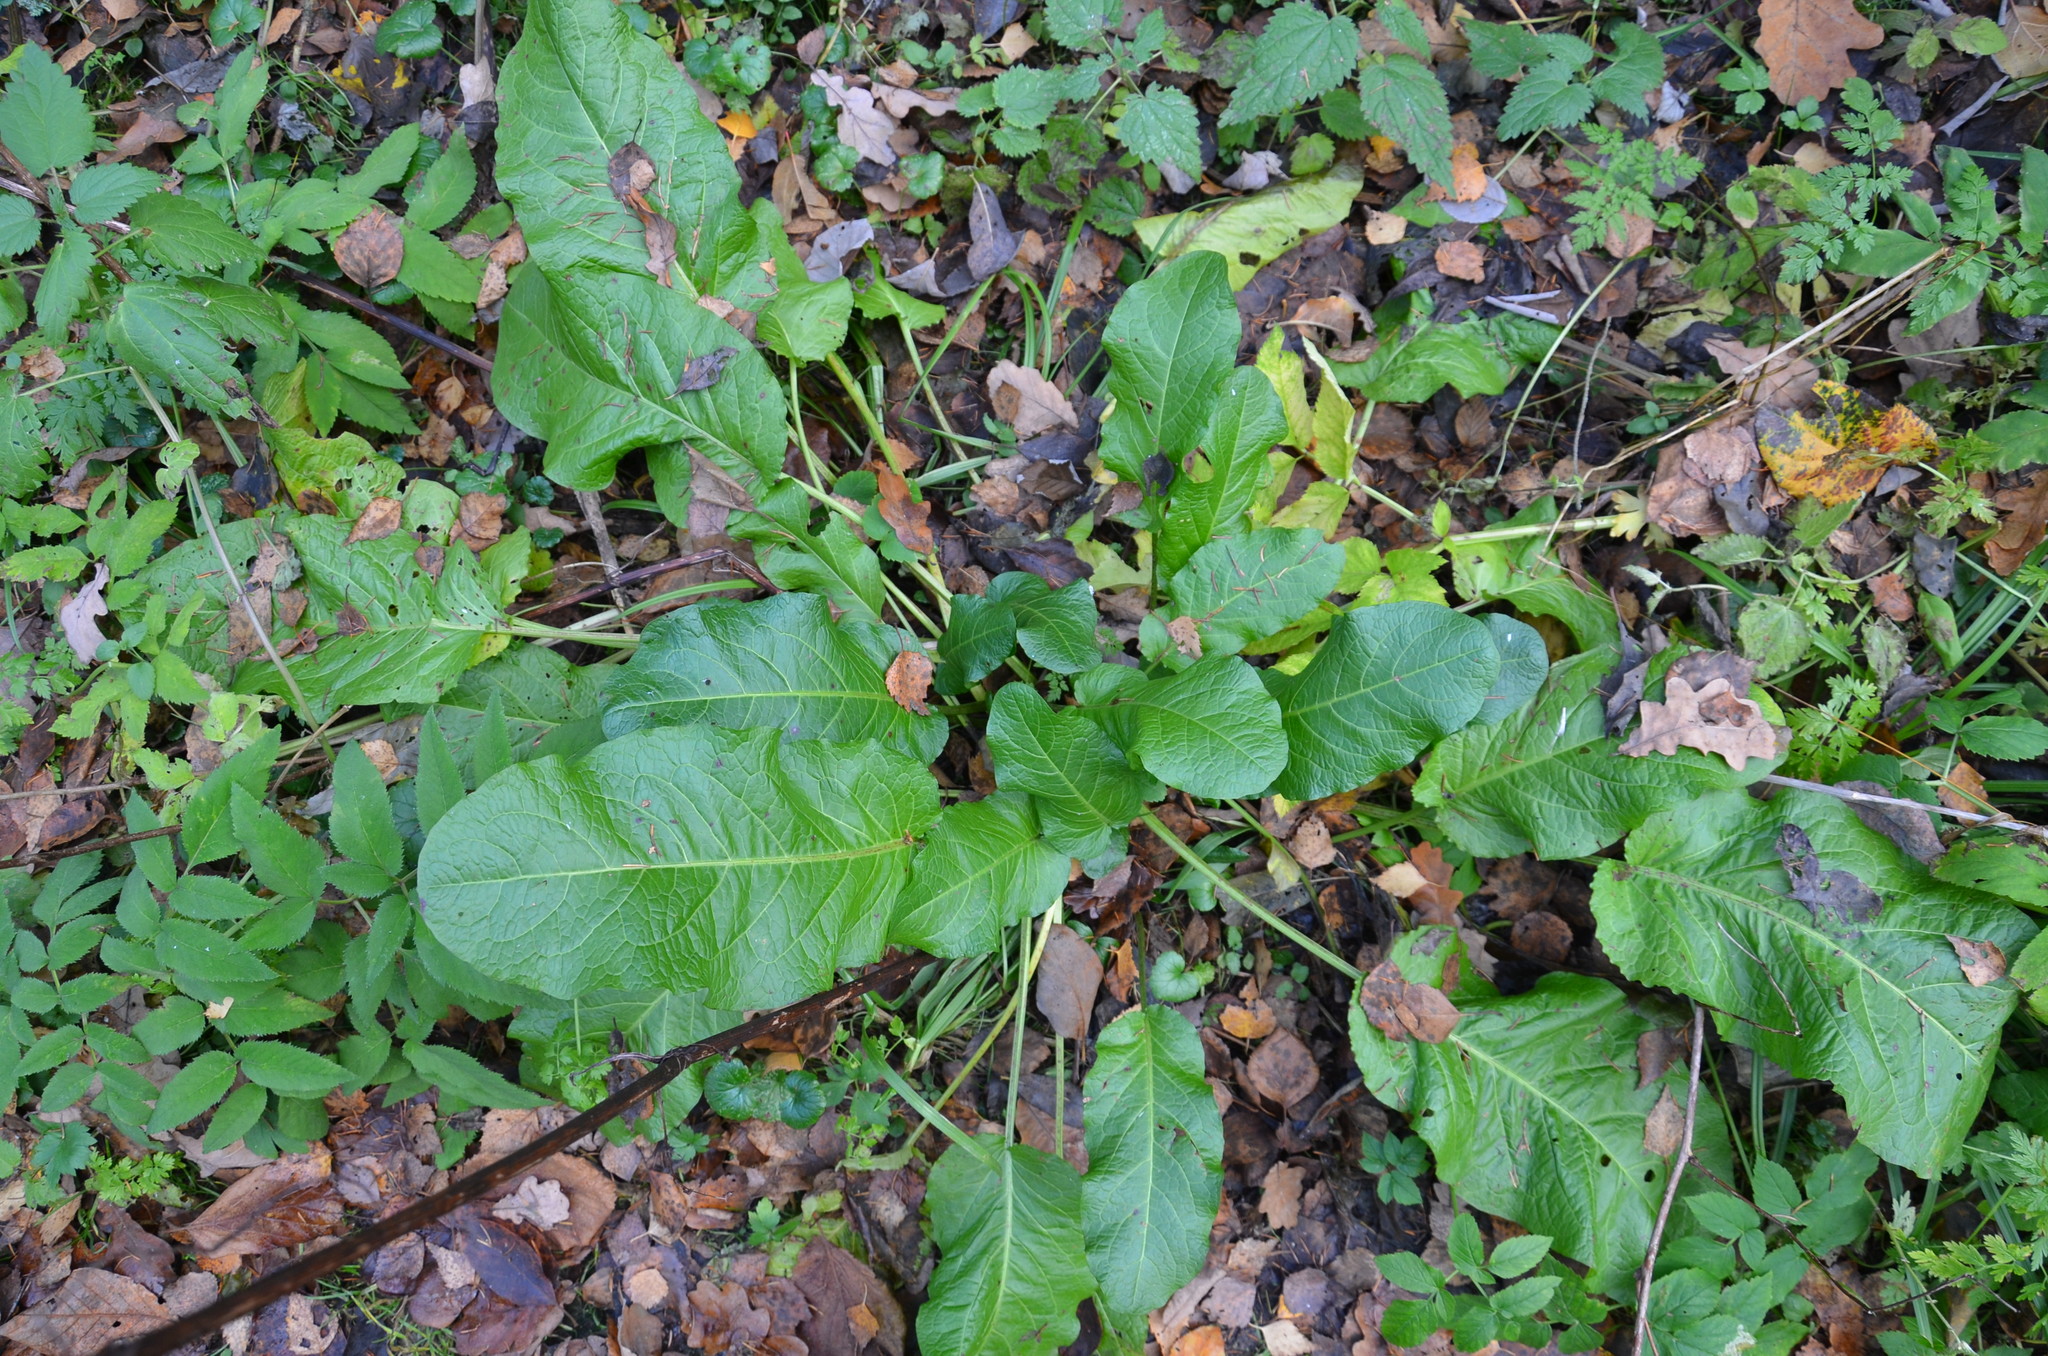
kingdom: Plantae
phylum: Tracheophyta
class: Magnoliopsida
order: Caryophyllales
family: Polygonaceae
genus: Rumex
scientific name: Rumex obtusifolius
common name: Bitter dock
